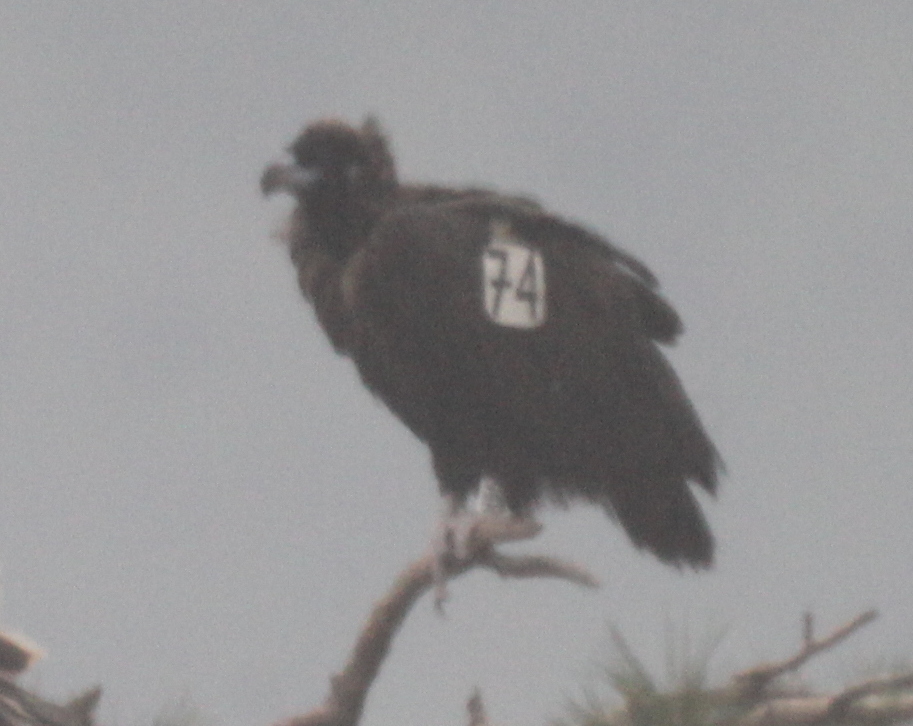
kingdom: Animalia
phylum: Chordata
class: Aves
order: Accipitriformes
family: Accipitridae
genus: Aegypius
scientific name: Aegypius monachus
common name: Cinereous vulture
